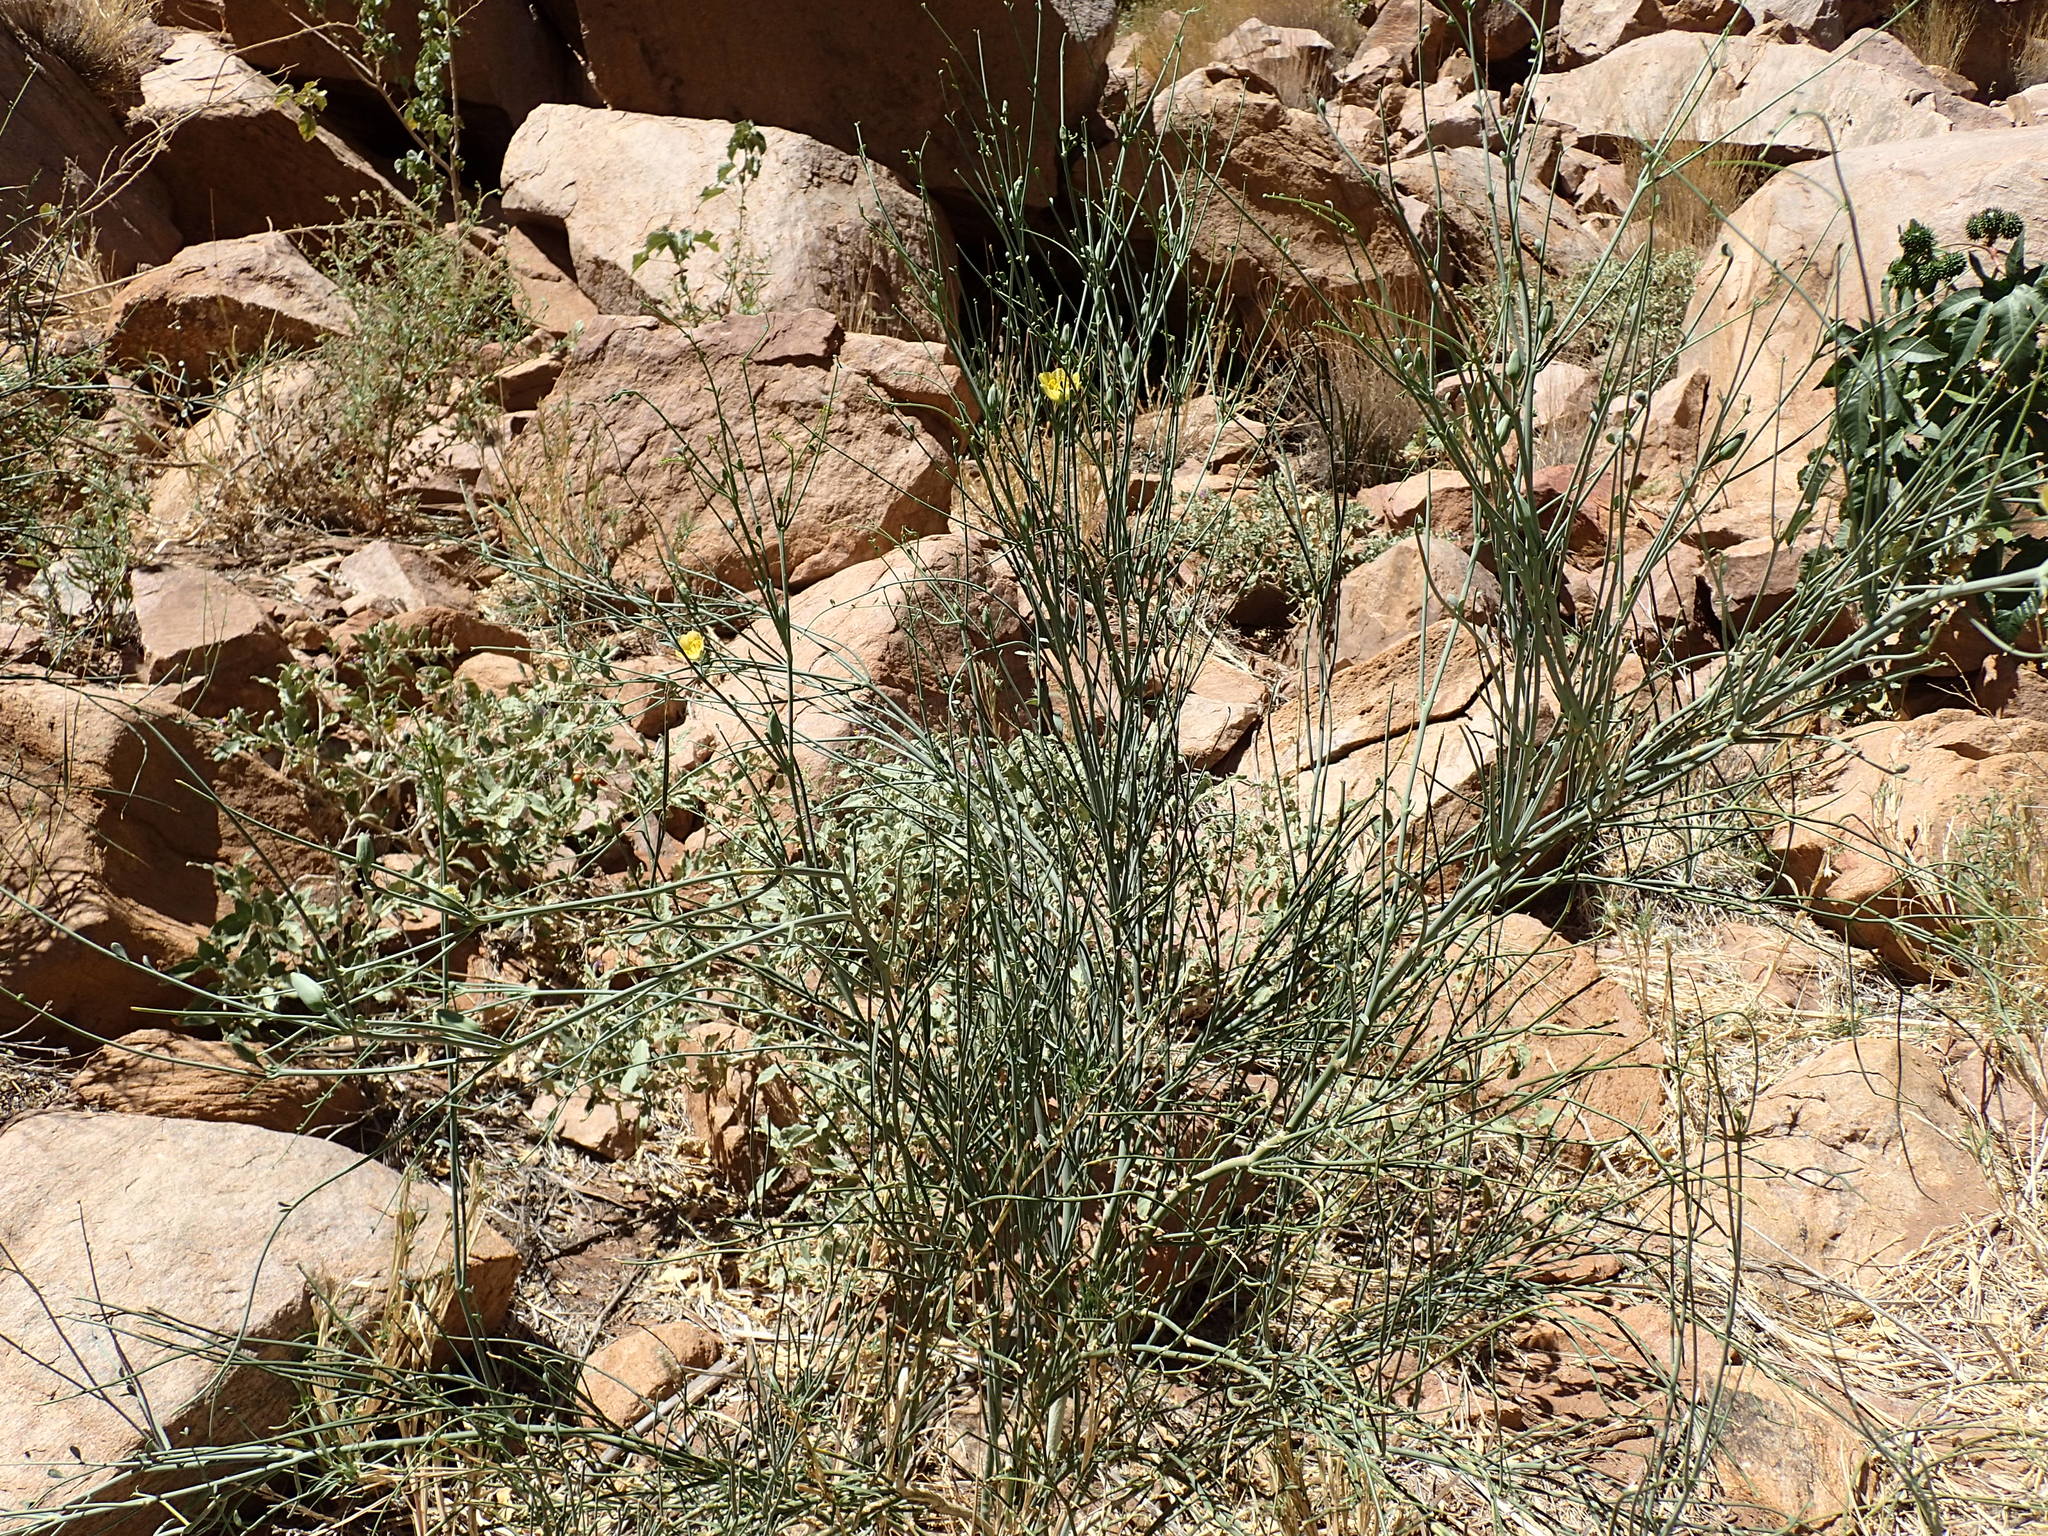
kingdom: Plantae
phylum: Tracheophyta
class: Magnoliopsida
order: Zygophyllales
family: Zygophyllaceae
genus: Sisyndite
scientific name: Sisyndite spartea
